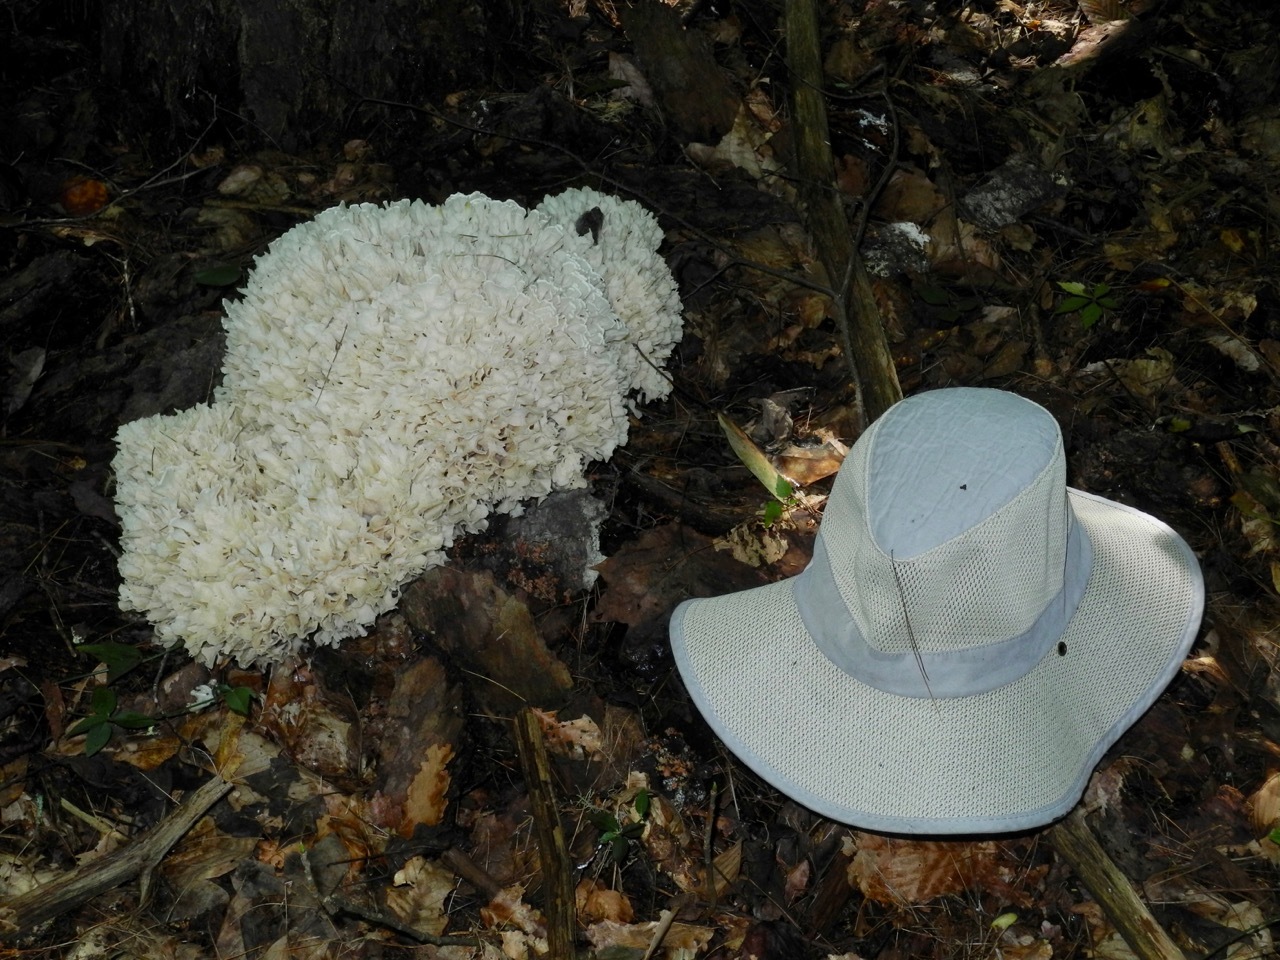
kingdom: Fungi
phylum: Basidiomycota
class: Agaricomycetes
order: Polyporales
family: Irpicaceae
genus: Irpex
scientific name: Irpex rosettiformis
